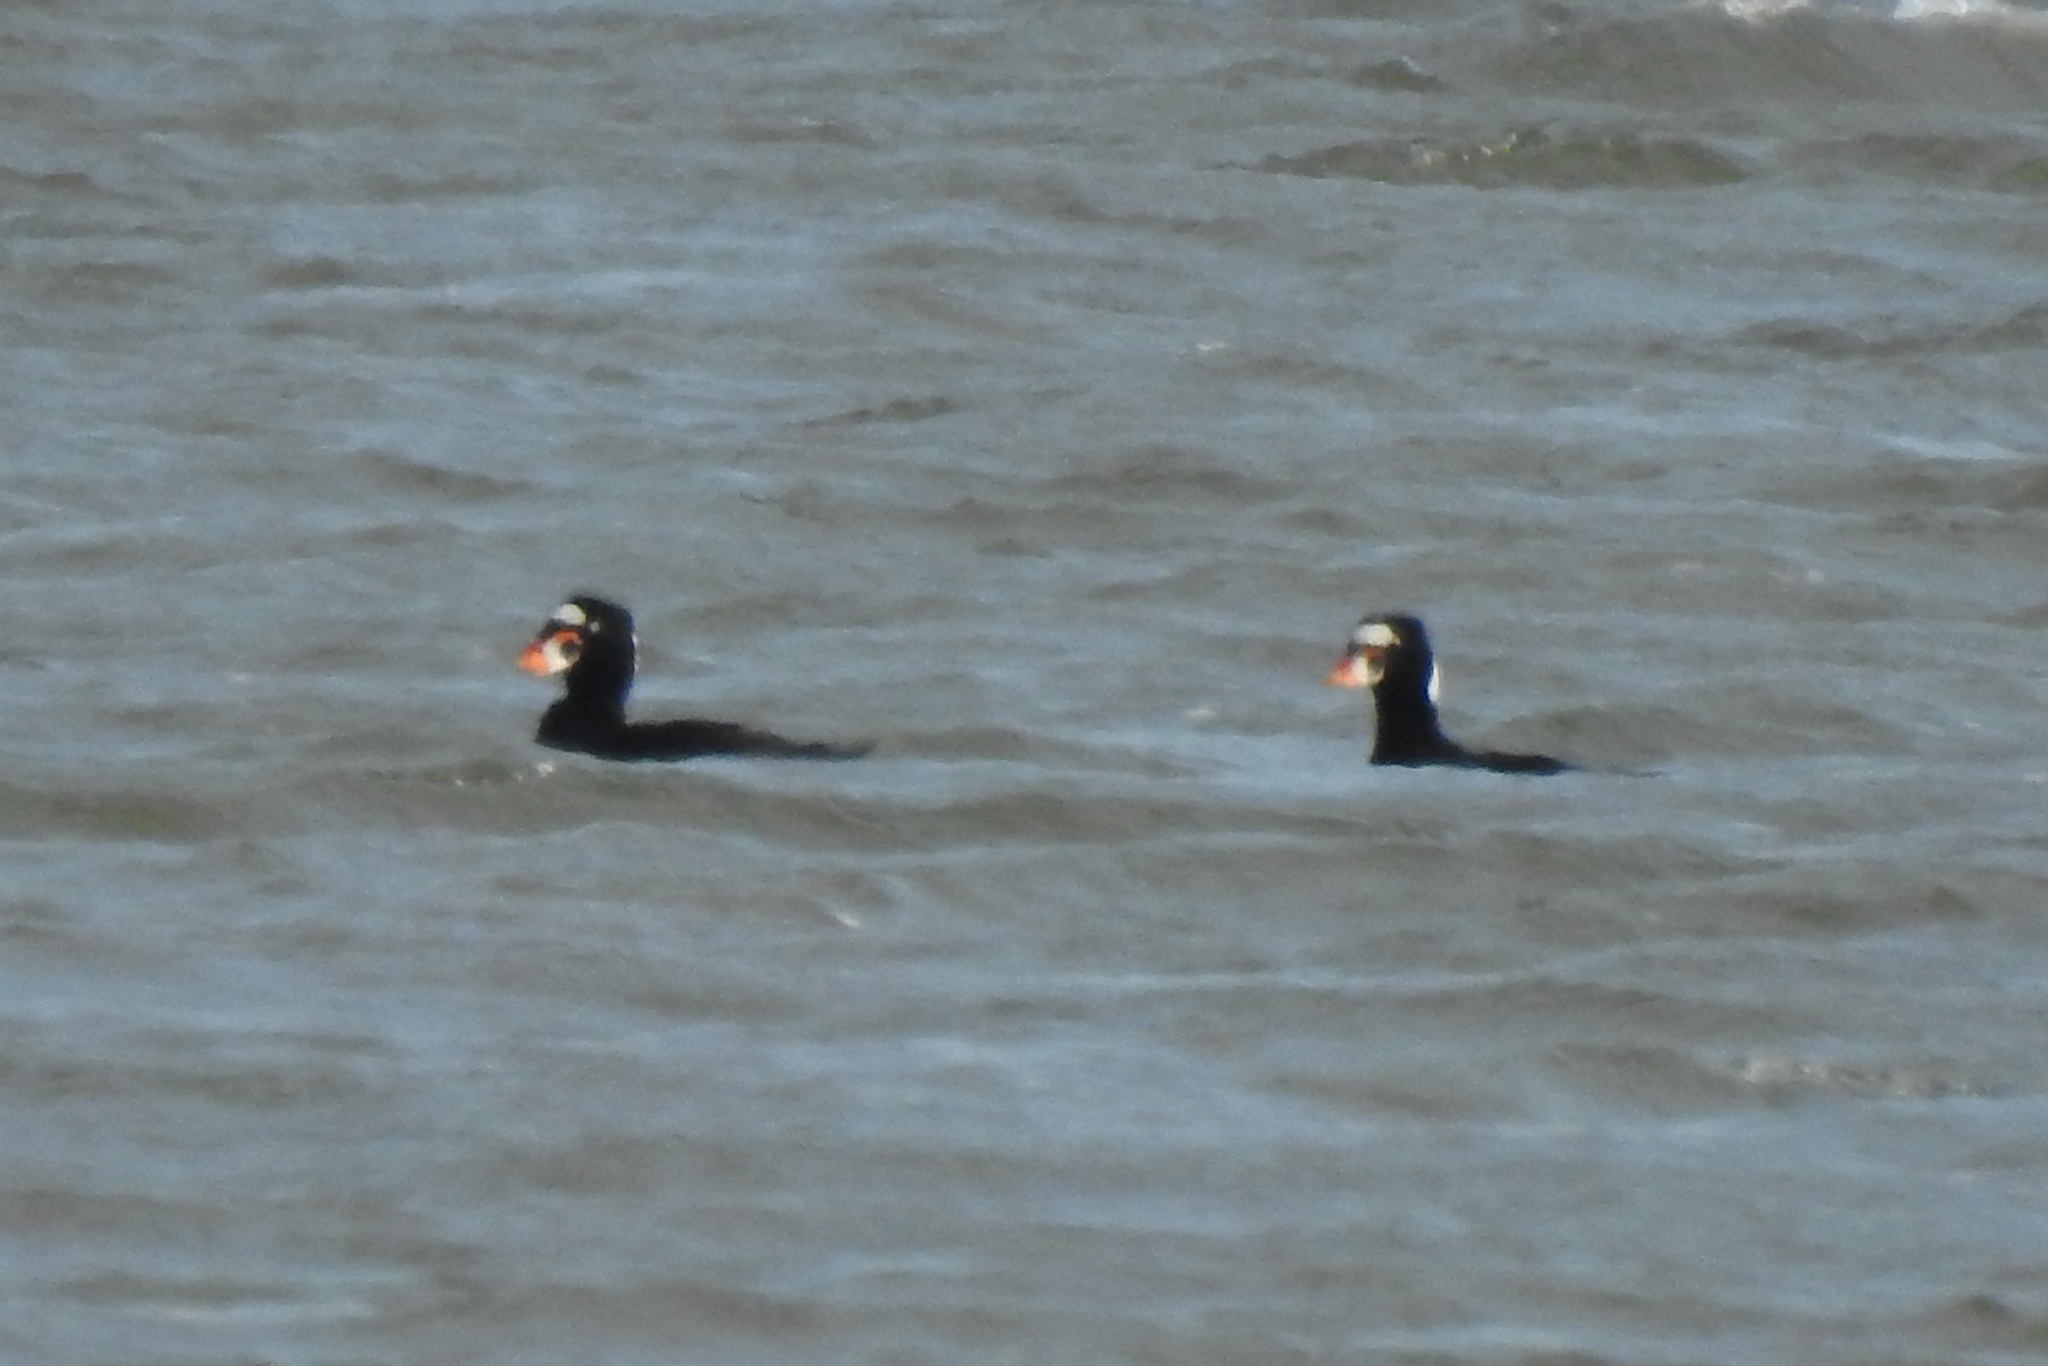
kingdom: Animalia
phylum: Chordata
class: Aves
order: Anseriformes
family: Anatidae
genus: Melanitta
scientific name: Melanitta perspicillata
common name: Surf scoter
